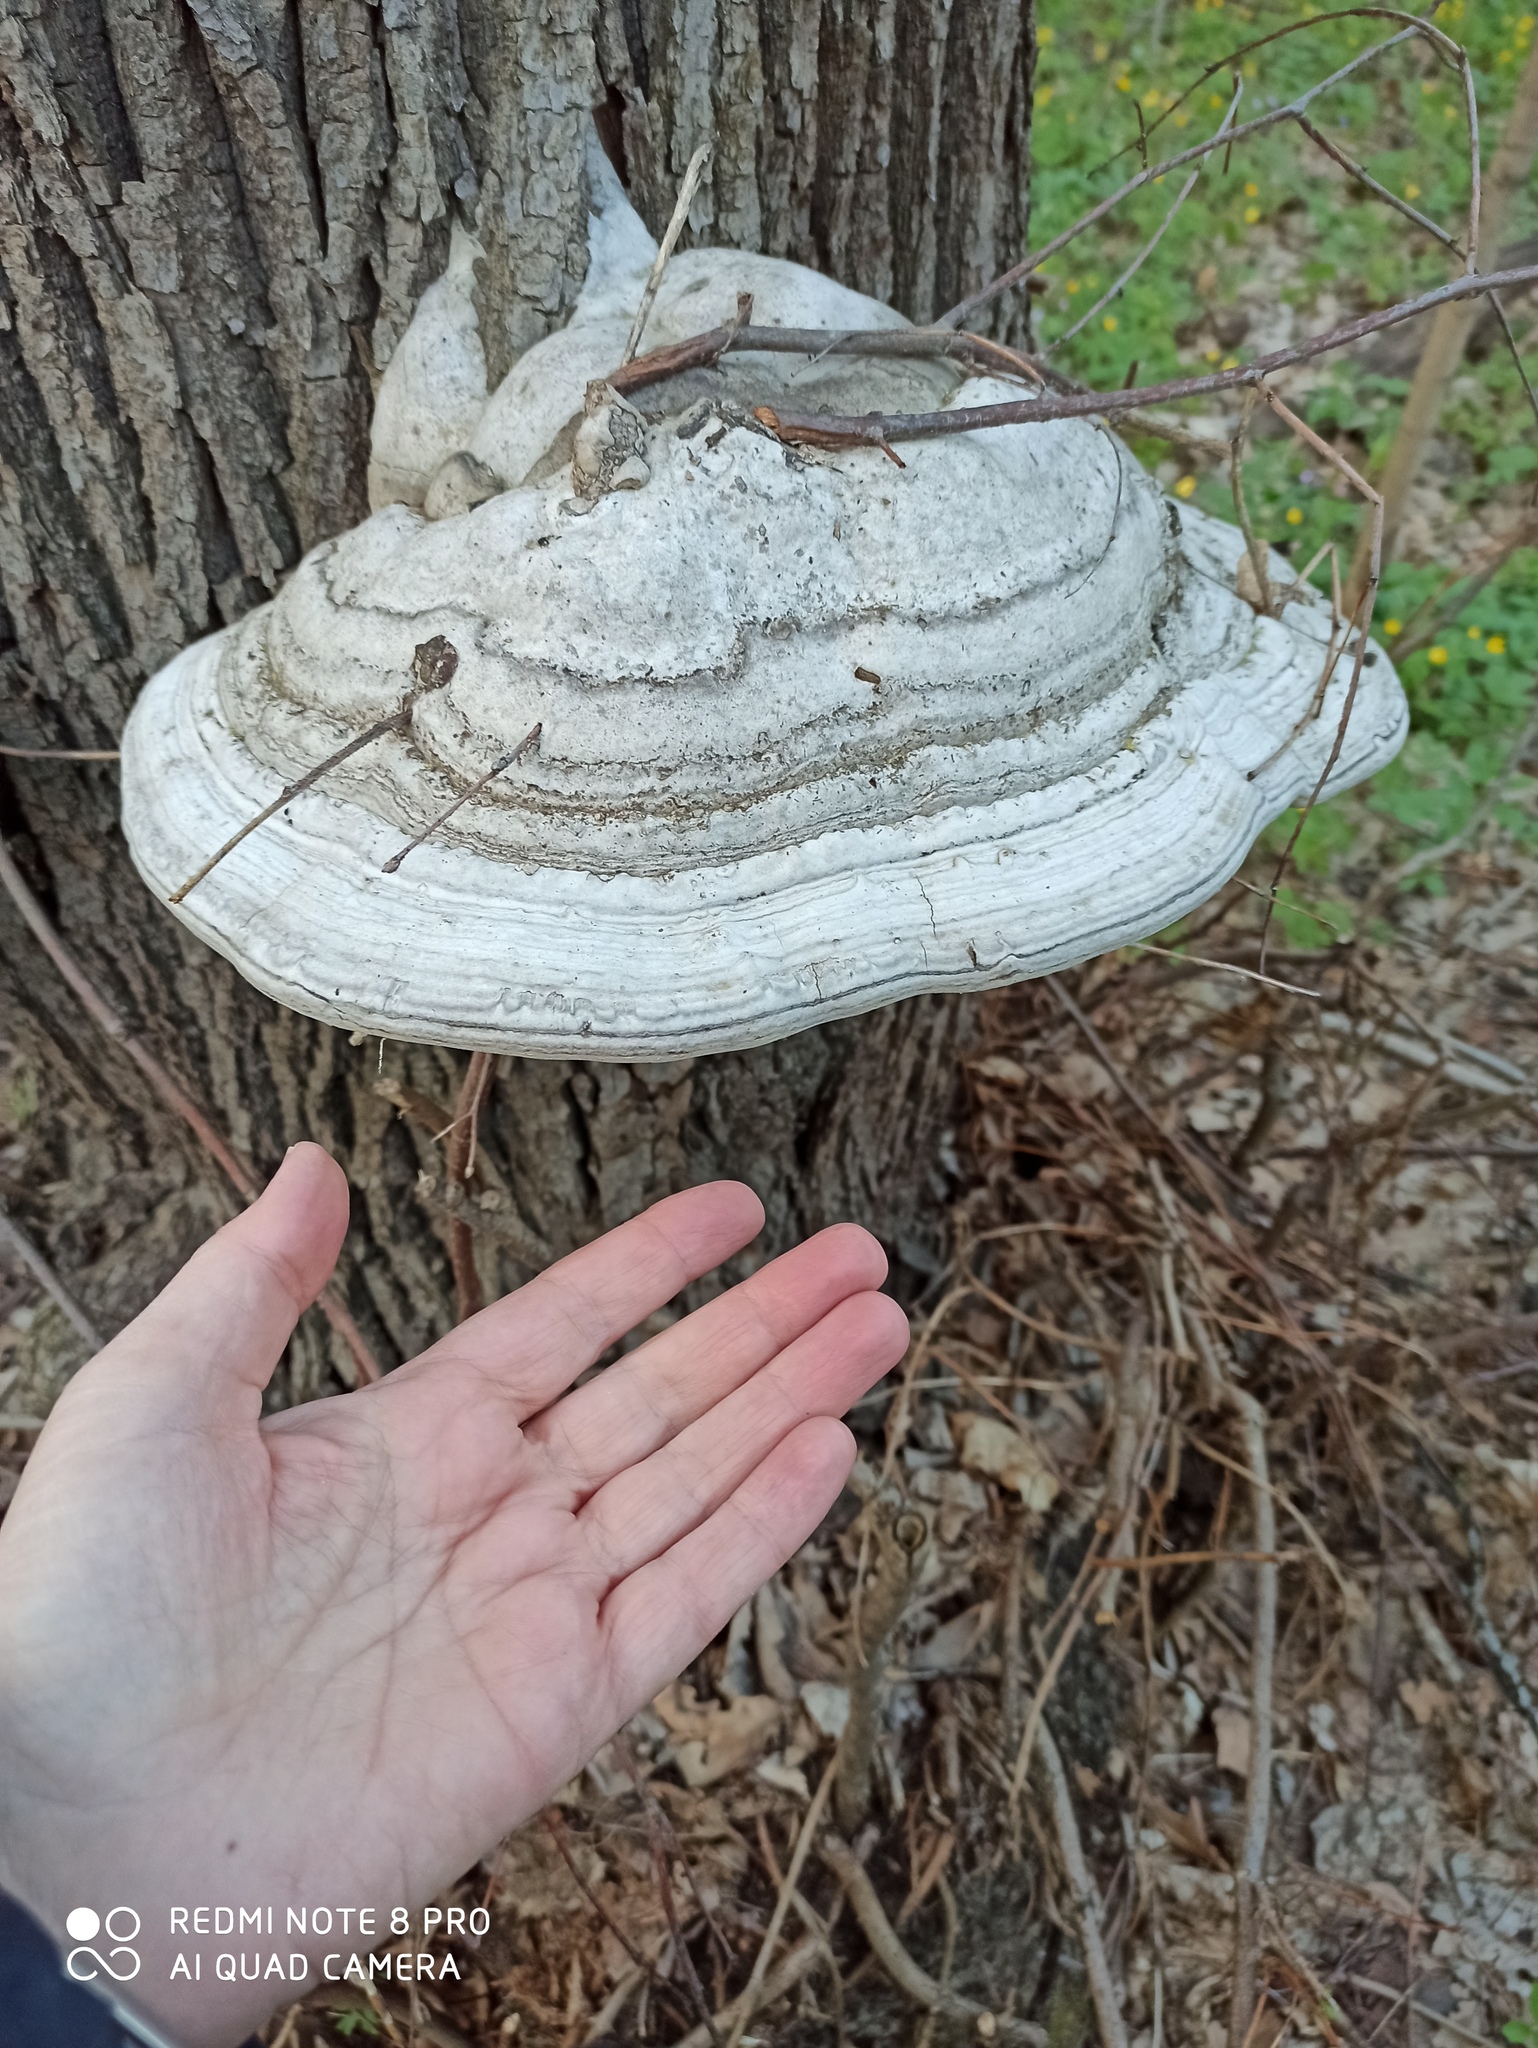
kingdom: Fungi
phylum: Basidiomycota
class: Agaricomycetes
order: Polyporales
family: Polyporaceae
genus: Fomes
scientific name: Fomes fomentarius
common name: Hoof fungus
